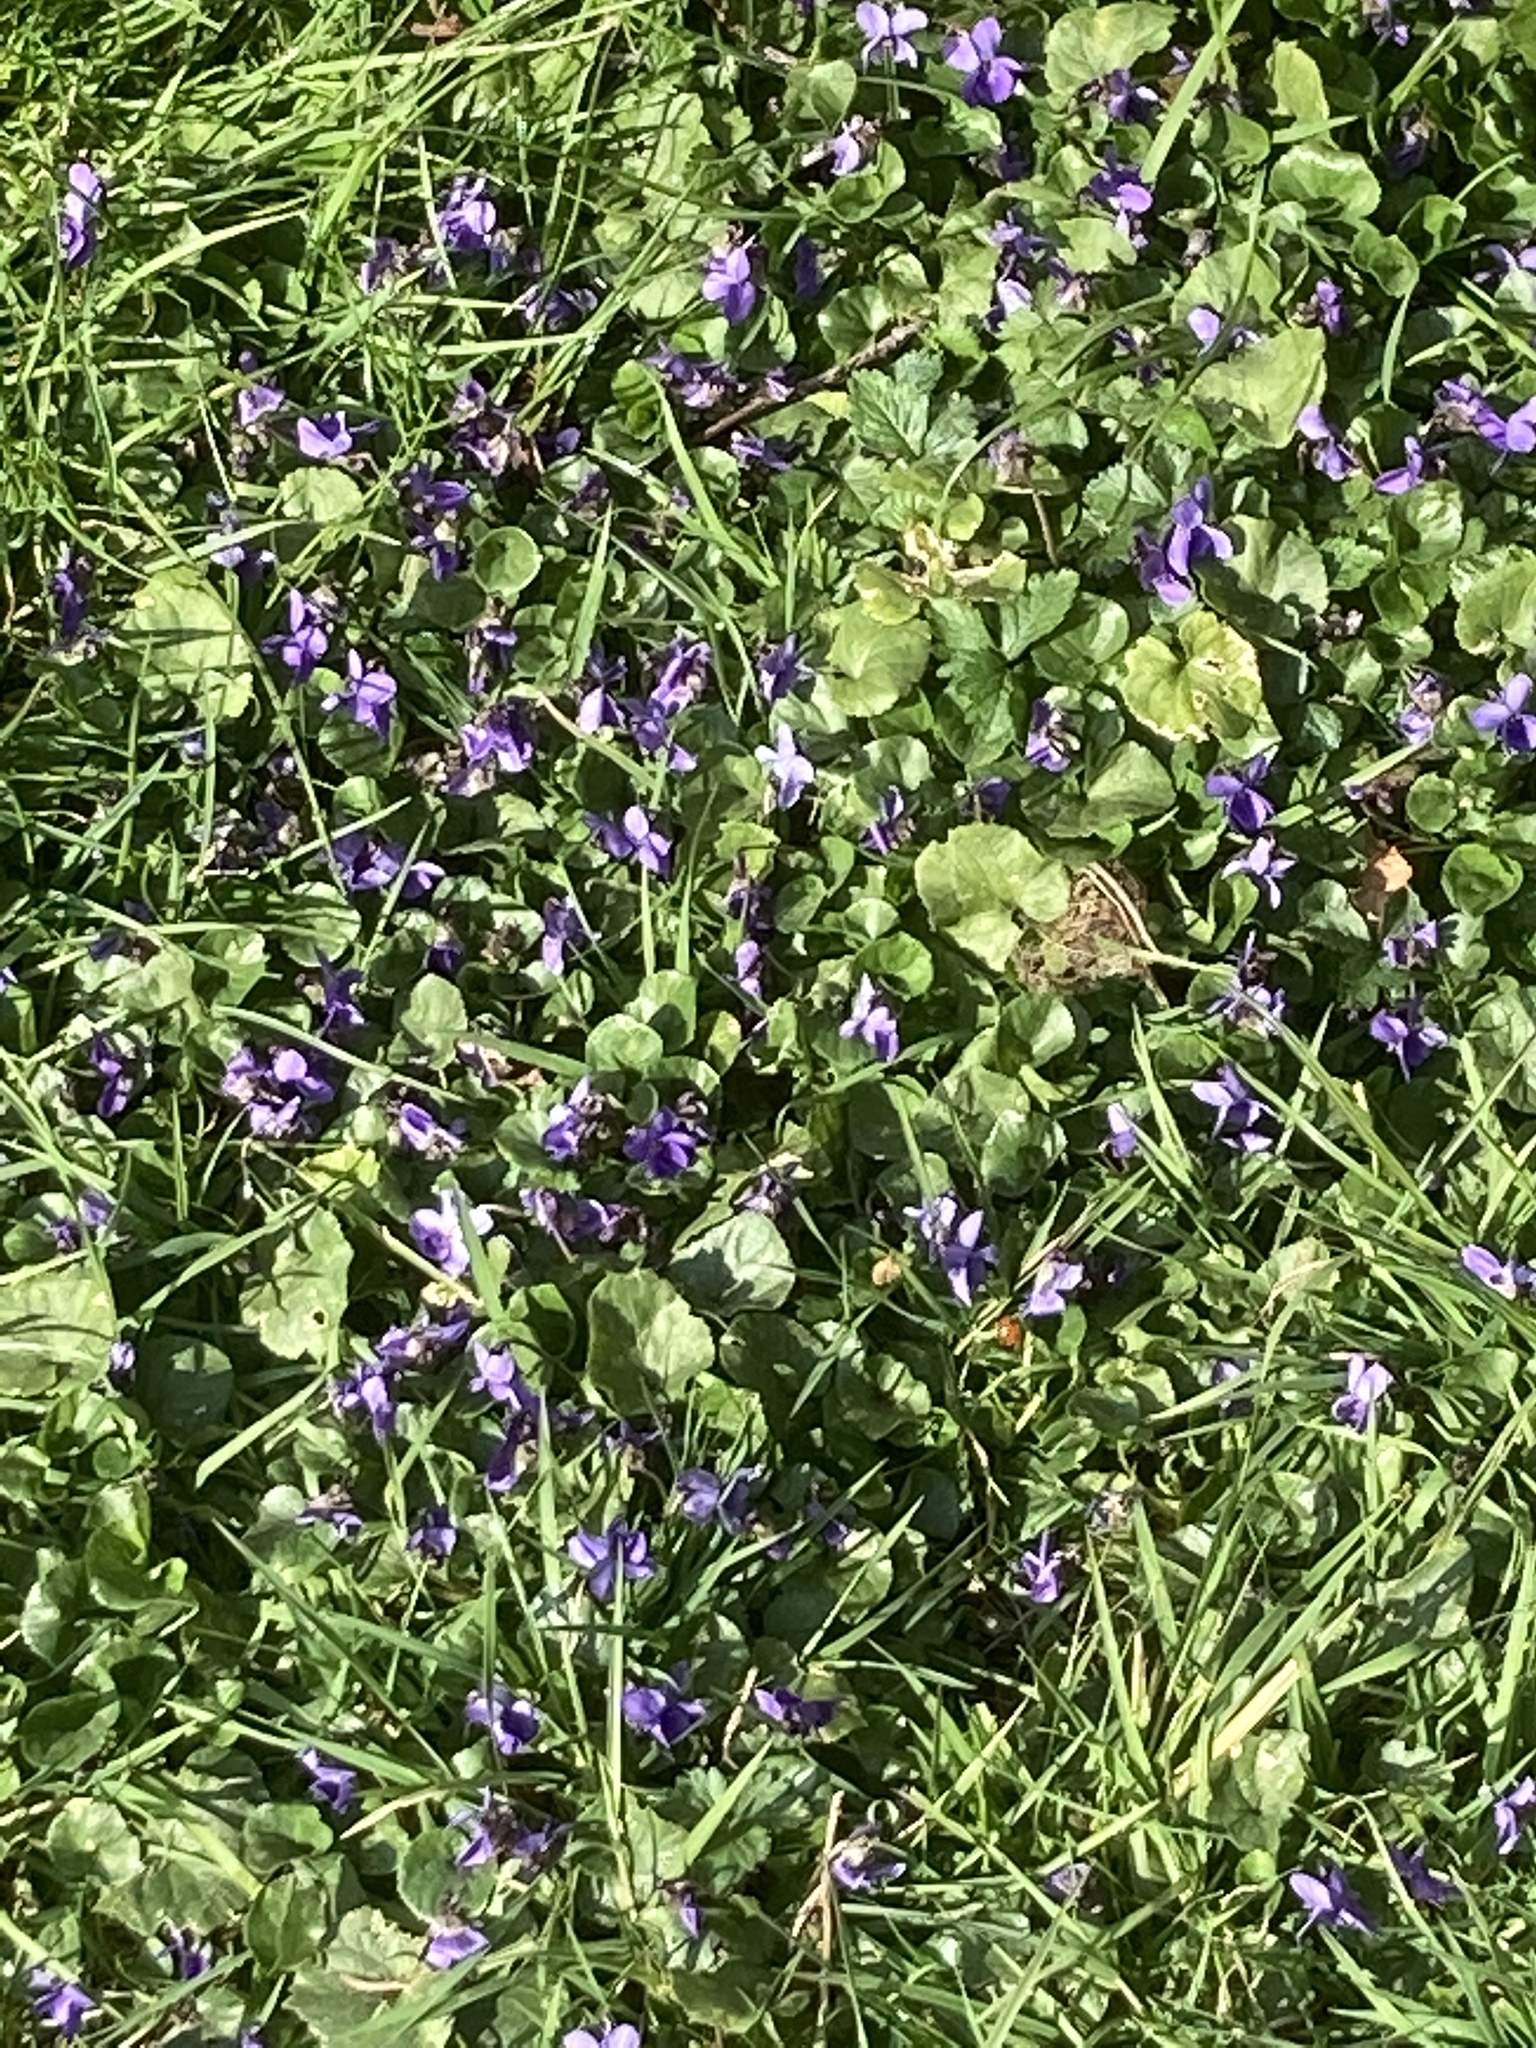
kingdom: Plantae
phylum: Tracheophyta
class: Magnoliopsida
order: Malpighiales
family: Violaceae
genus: Viola
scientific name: Viola odorata
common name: Sweet violet
